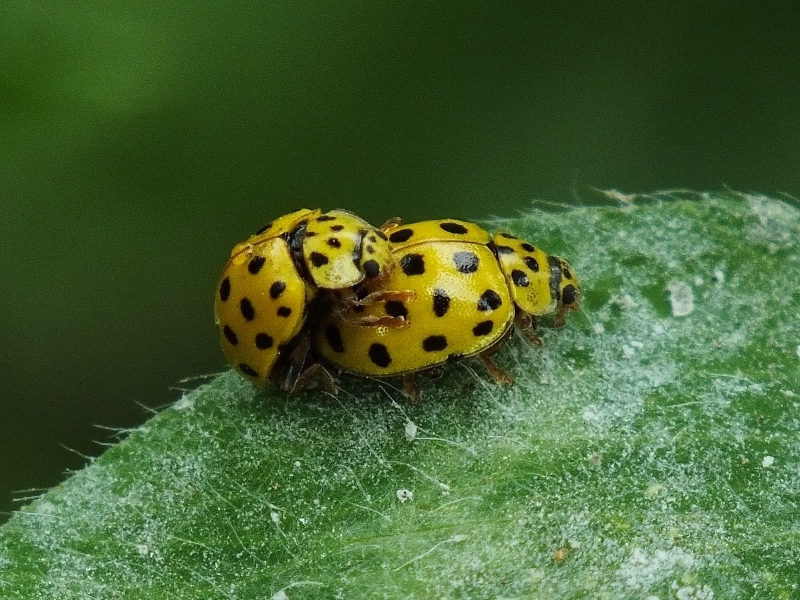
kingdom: Animalia
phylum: Arthropoda
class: Insecta
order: Coleoptera
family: Coccinellidae
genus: Psyllobora
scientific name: Psyllobora vigintiduopunctata
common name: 22-spot ladybird
